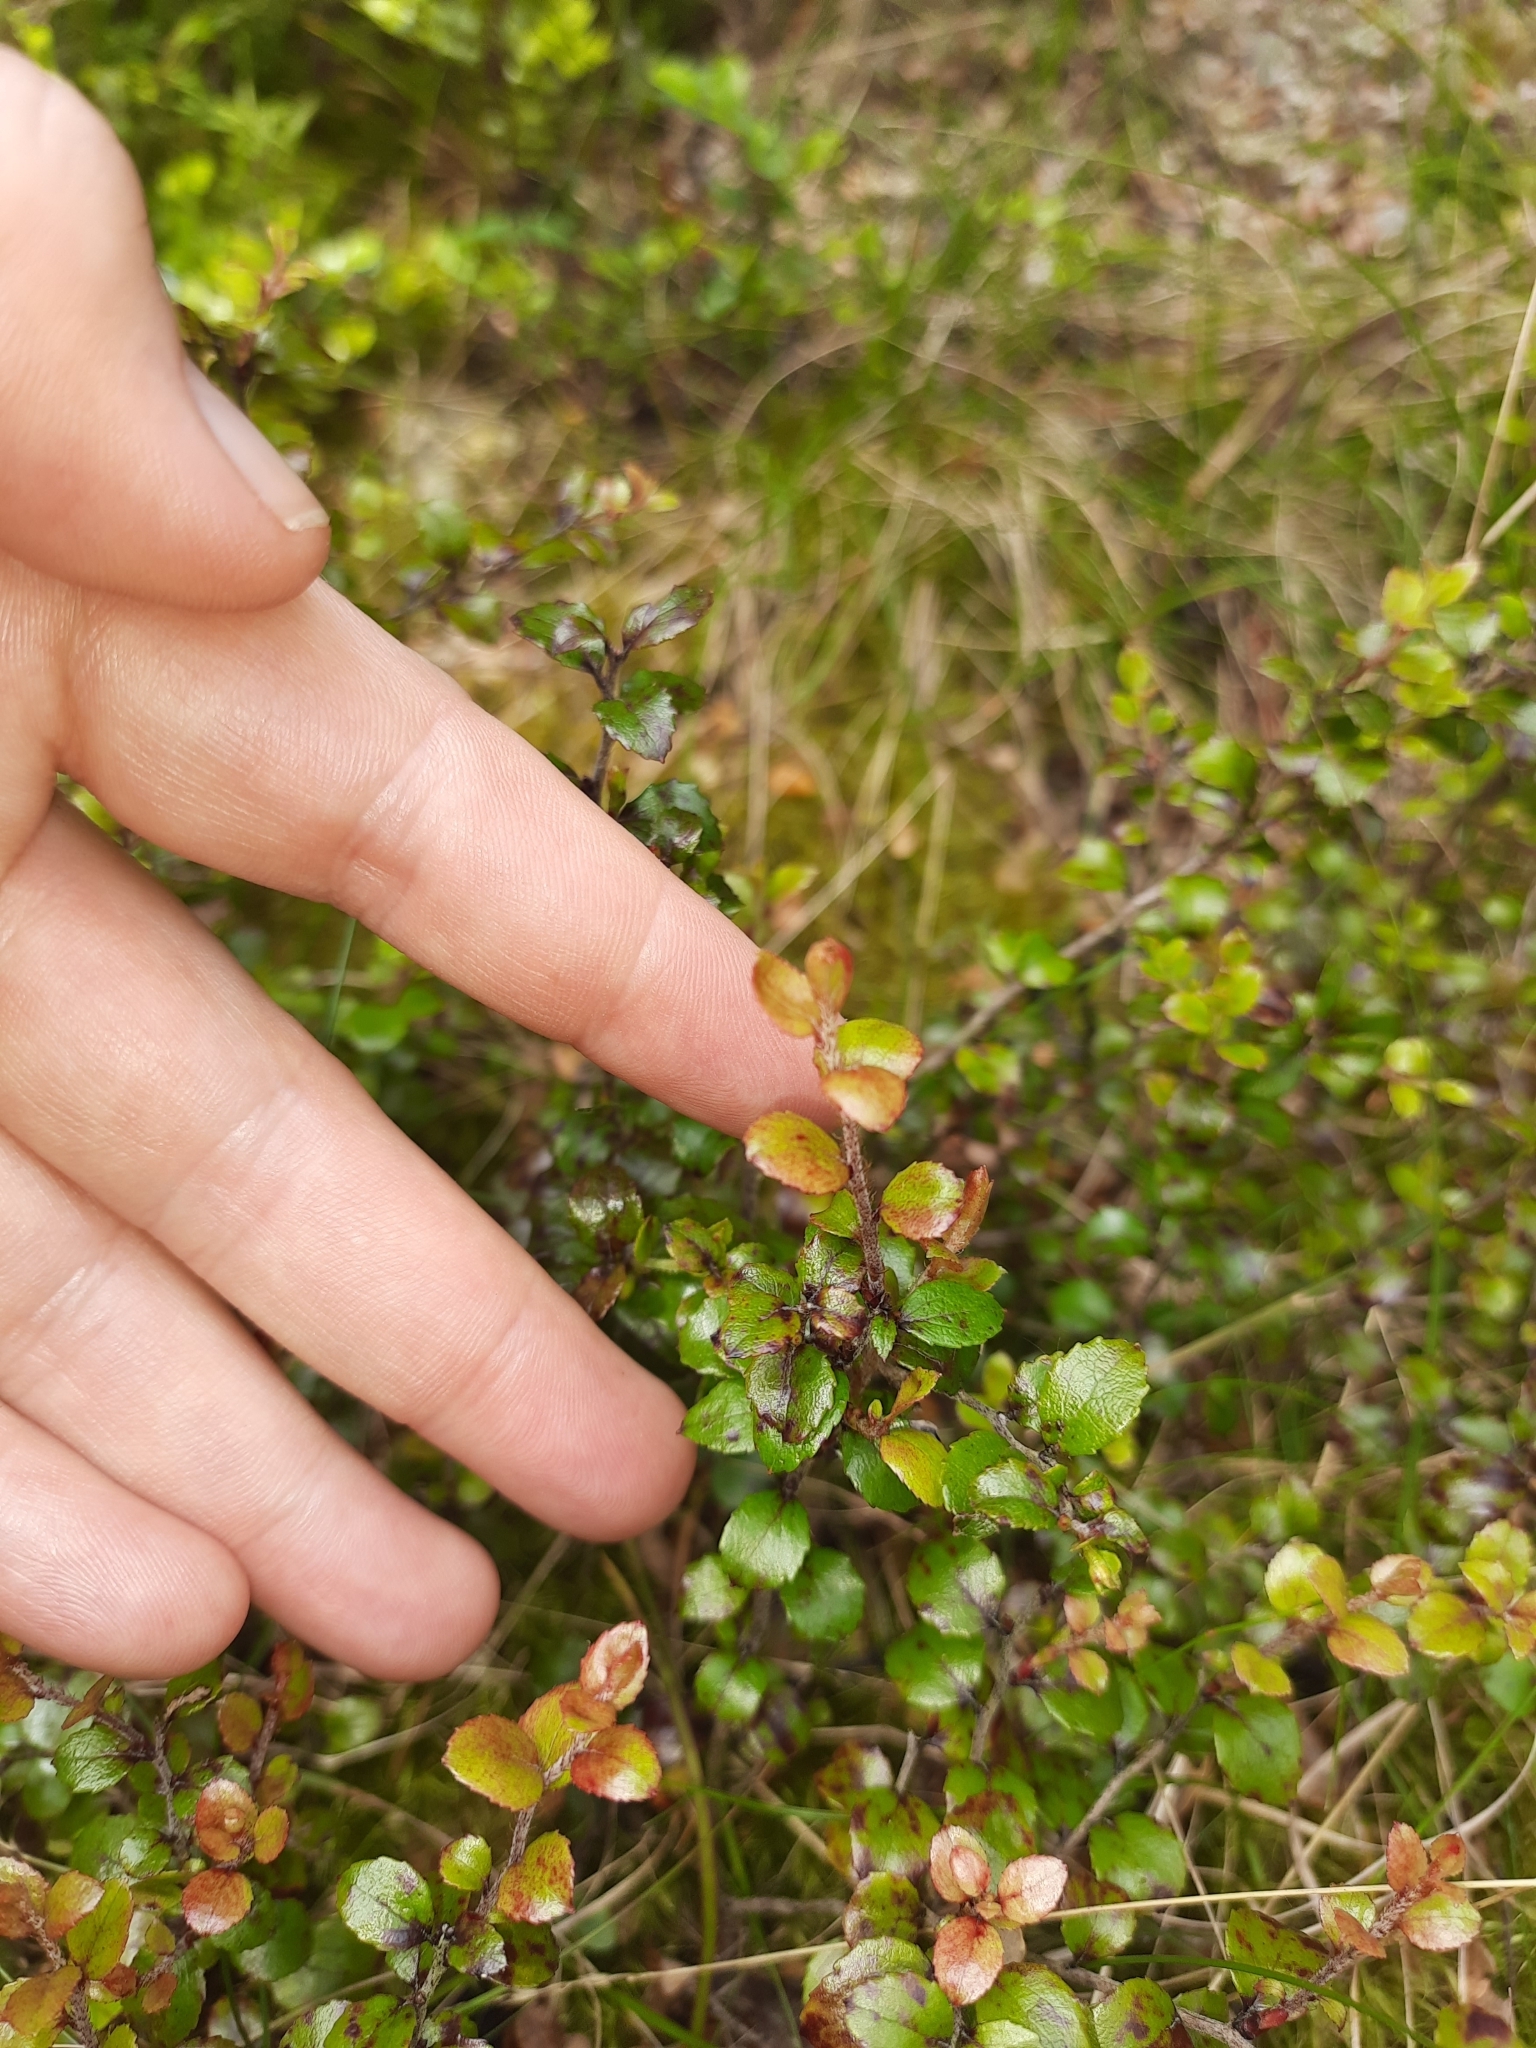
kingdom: Plantae
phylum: Tracheophyta
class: Magnoliopsida
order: Ericales
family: Ericaceae
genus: Gaultheria
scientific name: Gaultheria antipoda
